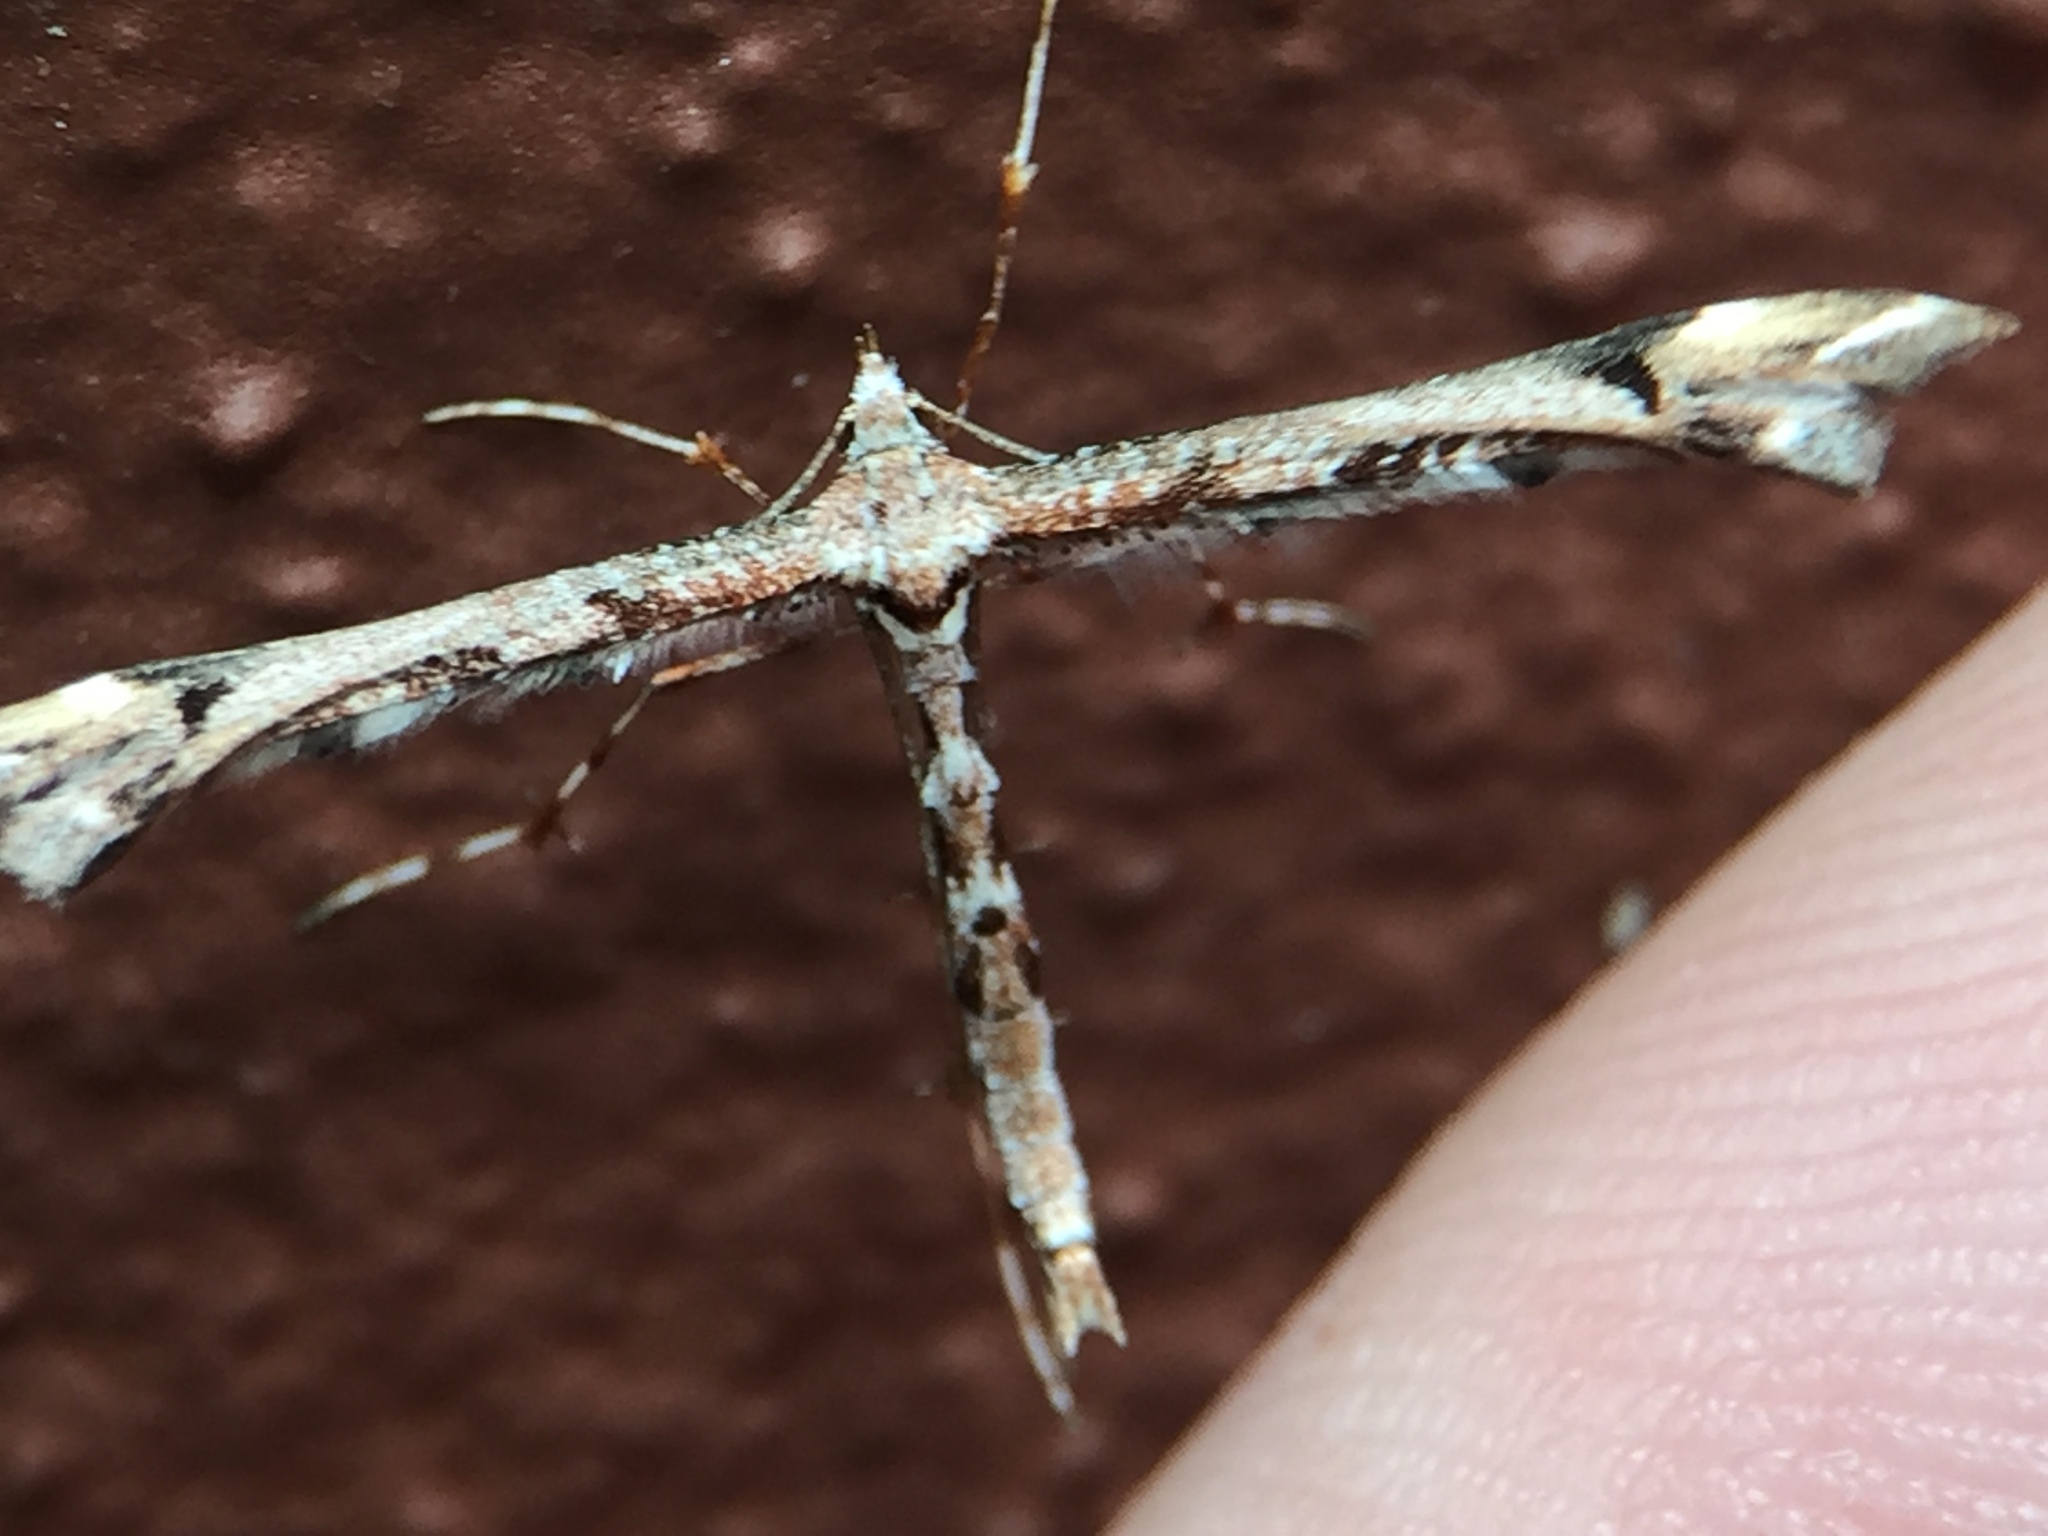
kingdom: Animalia
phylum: Arthropoda
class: Insecta
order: Lepidoptera
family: Pterophoridae
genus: Amblyptilia
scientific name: Amblyptilia falcatalis
